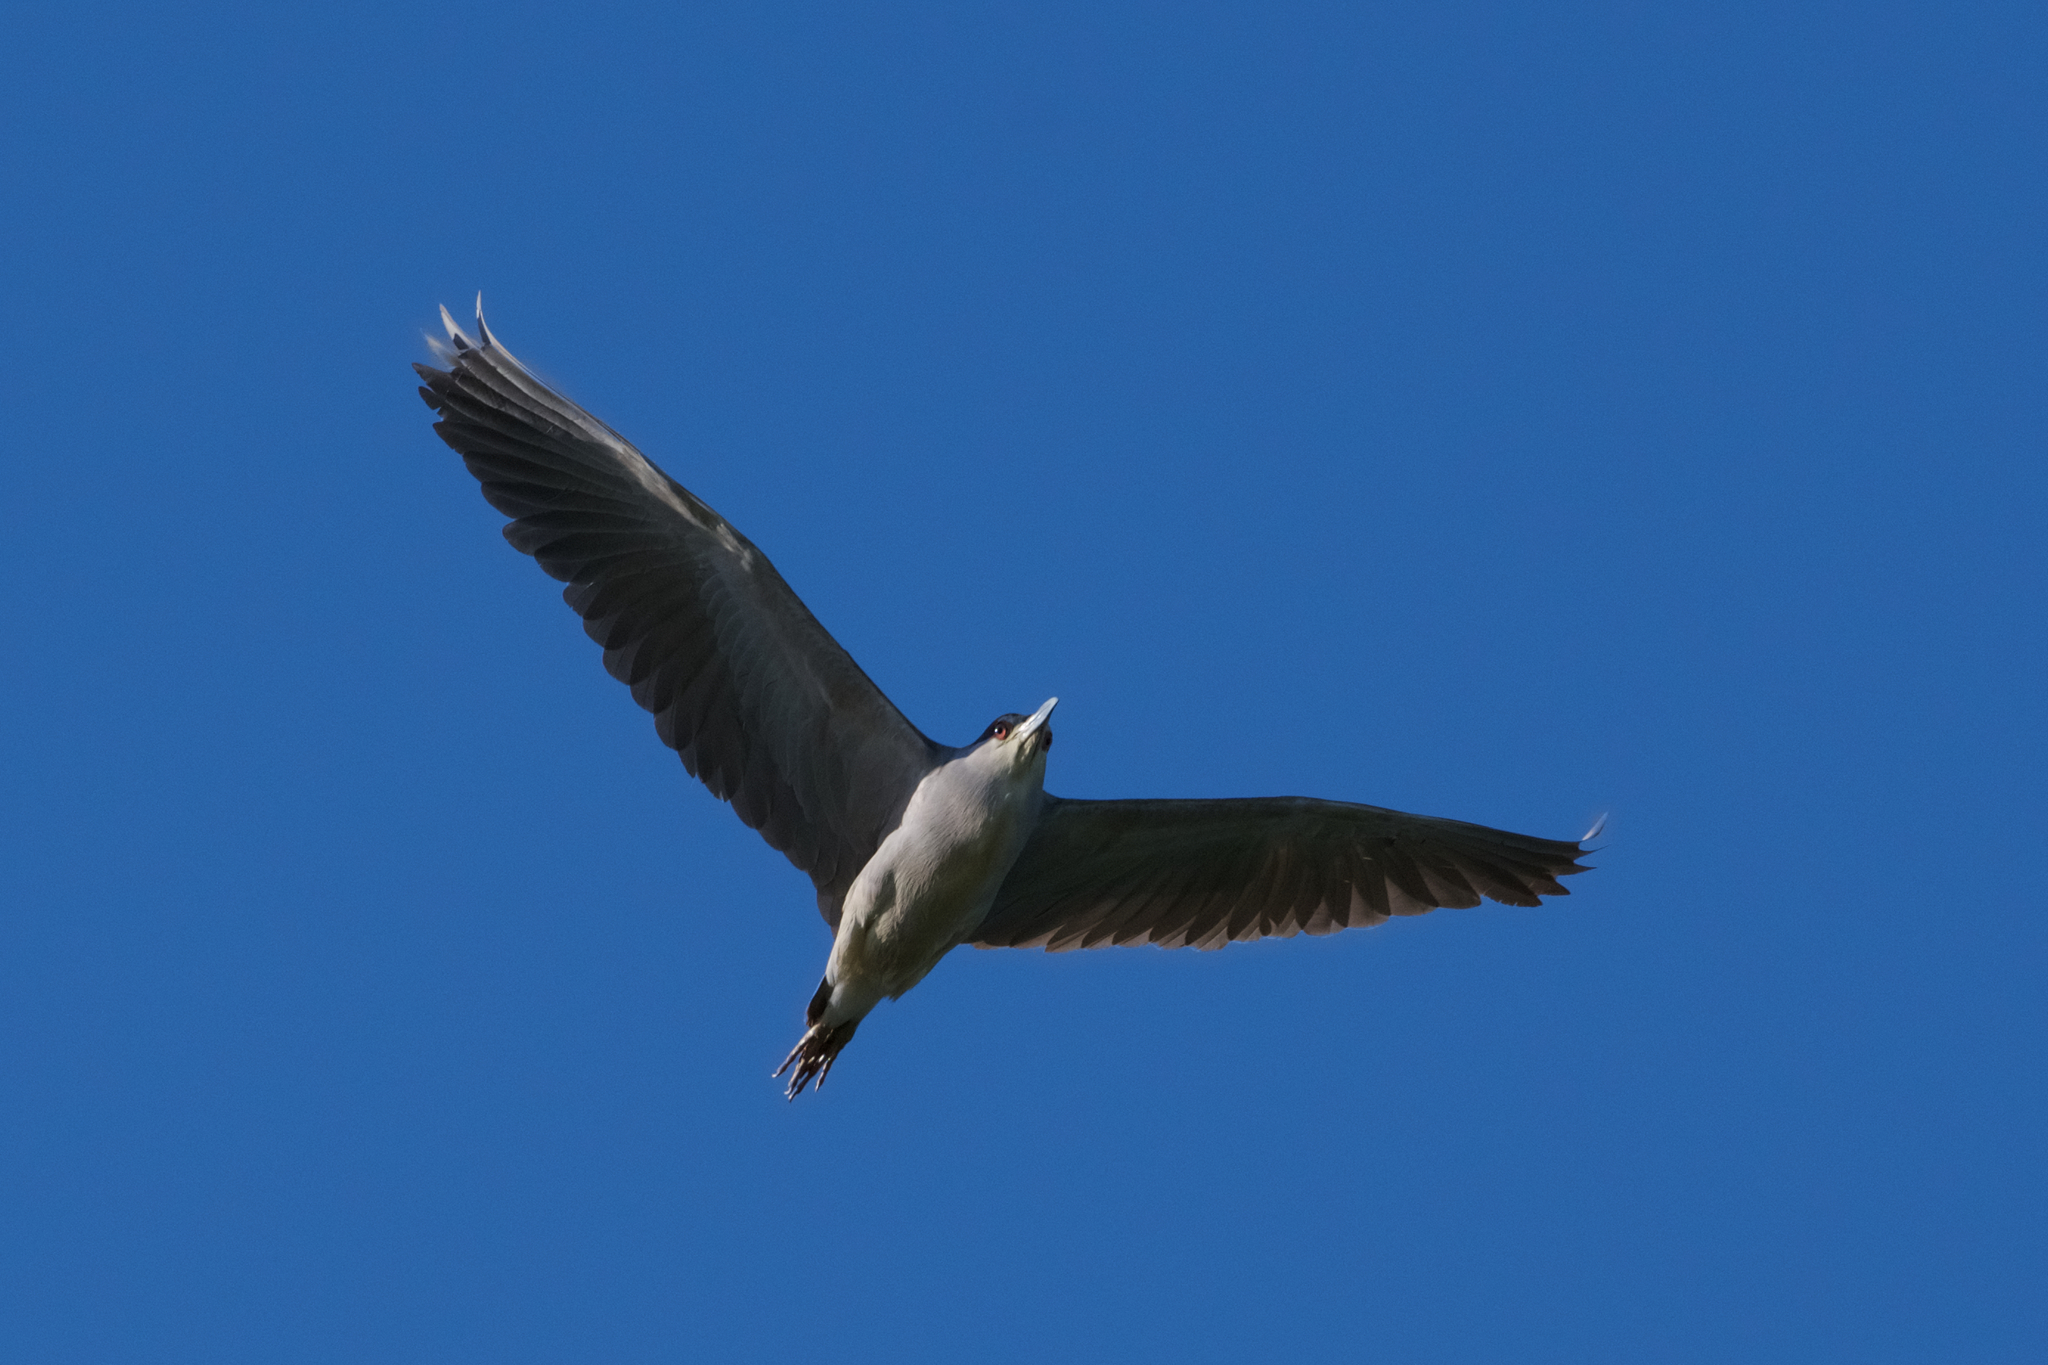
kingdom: Animalia
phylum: Chordata
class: Aves
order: Pelecaniformes
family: Ardeidae
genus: Nycticorax
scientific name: Nycticorax nycticorax
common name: Black-crowned night heron
